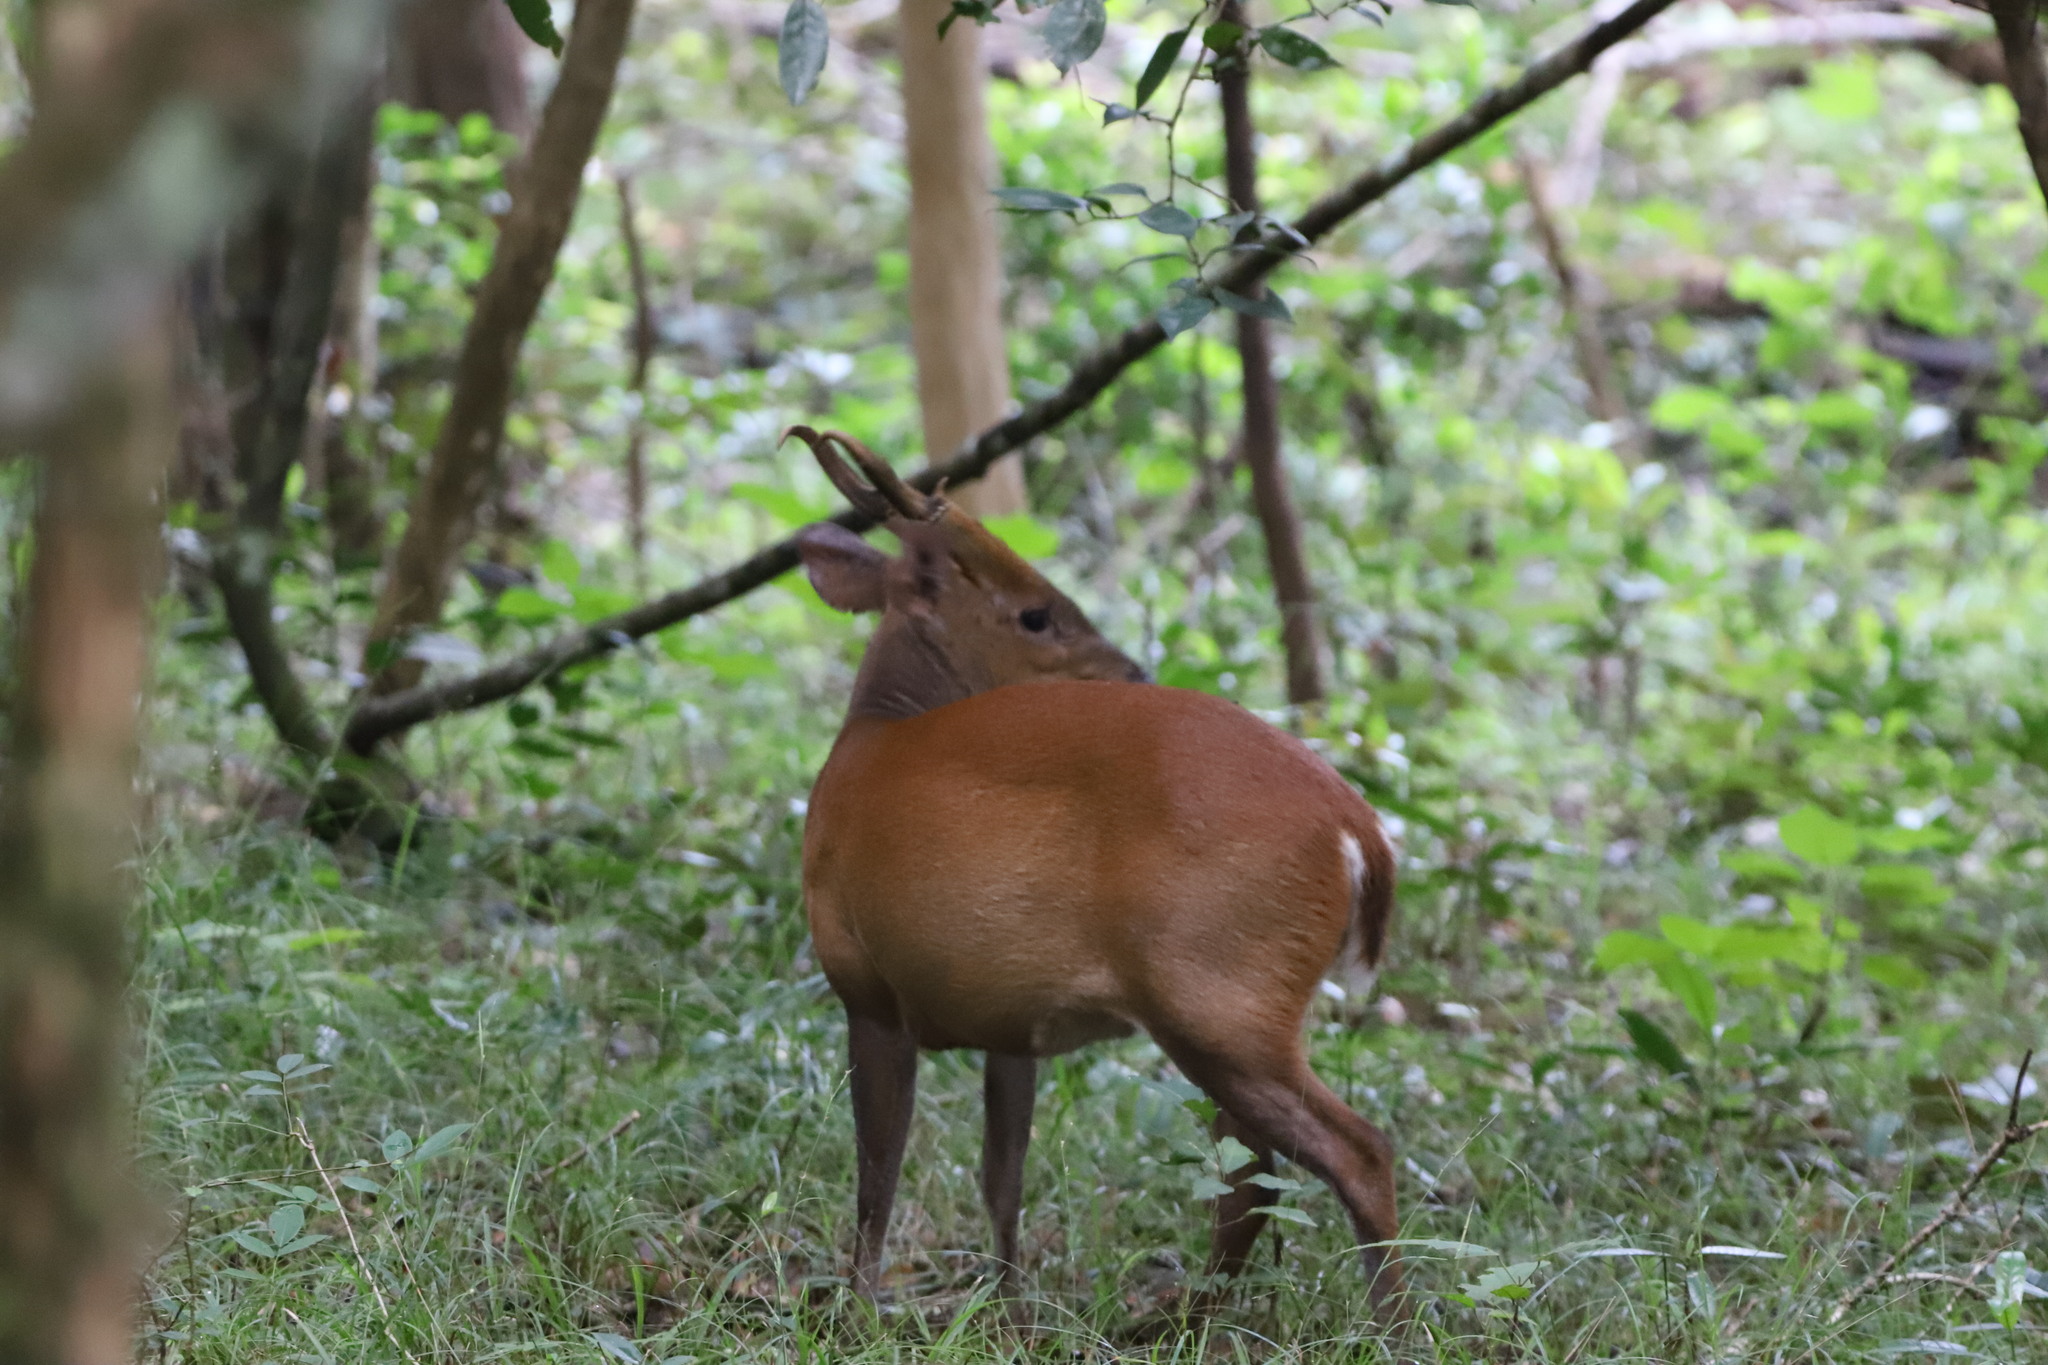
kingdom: Animalia
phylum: Chordata
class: Mammalia
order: Artiodactyla
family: Cervidae
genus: Muntiacus
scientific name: Muntiacus muntjak
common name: Indian muntjac
